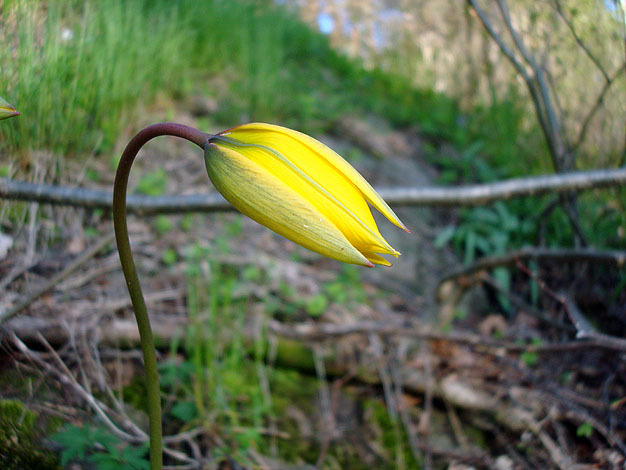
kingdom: Plantae
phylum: Tracheophyta
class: Liliopsida
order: Liliales
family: Liliaceae
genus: Tulipa
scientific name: Tulipa sylvestris
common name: Wild tulip
